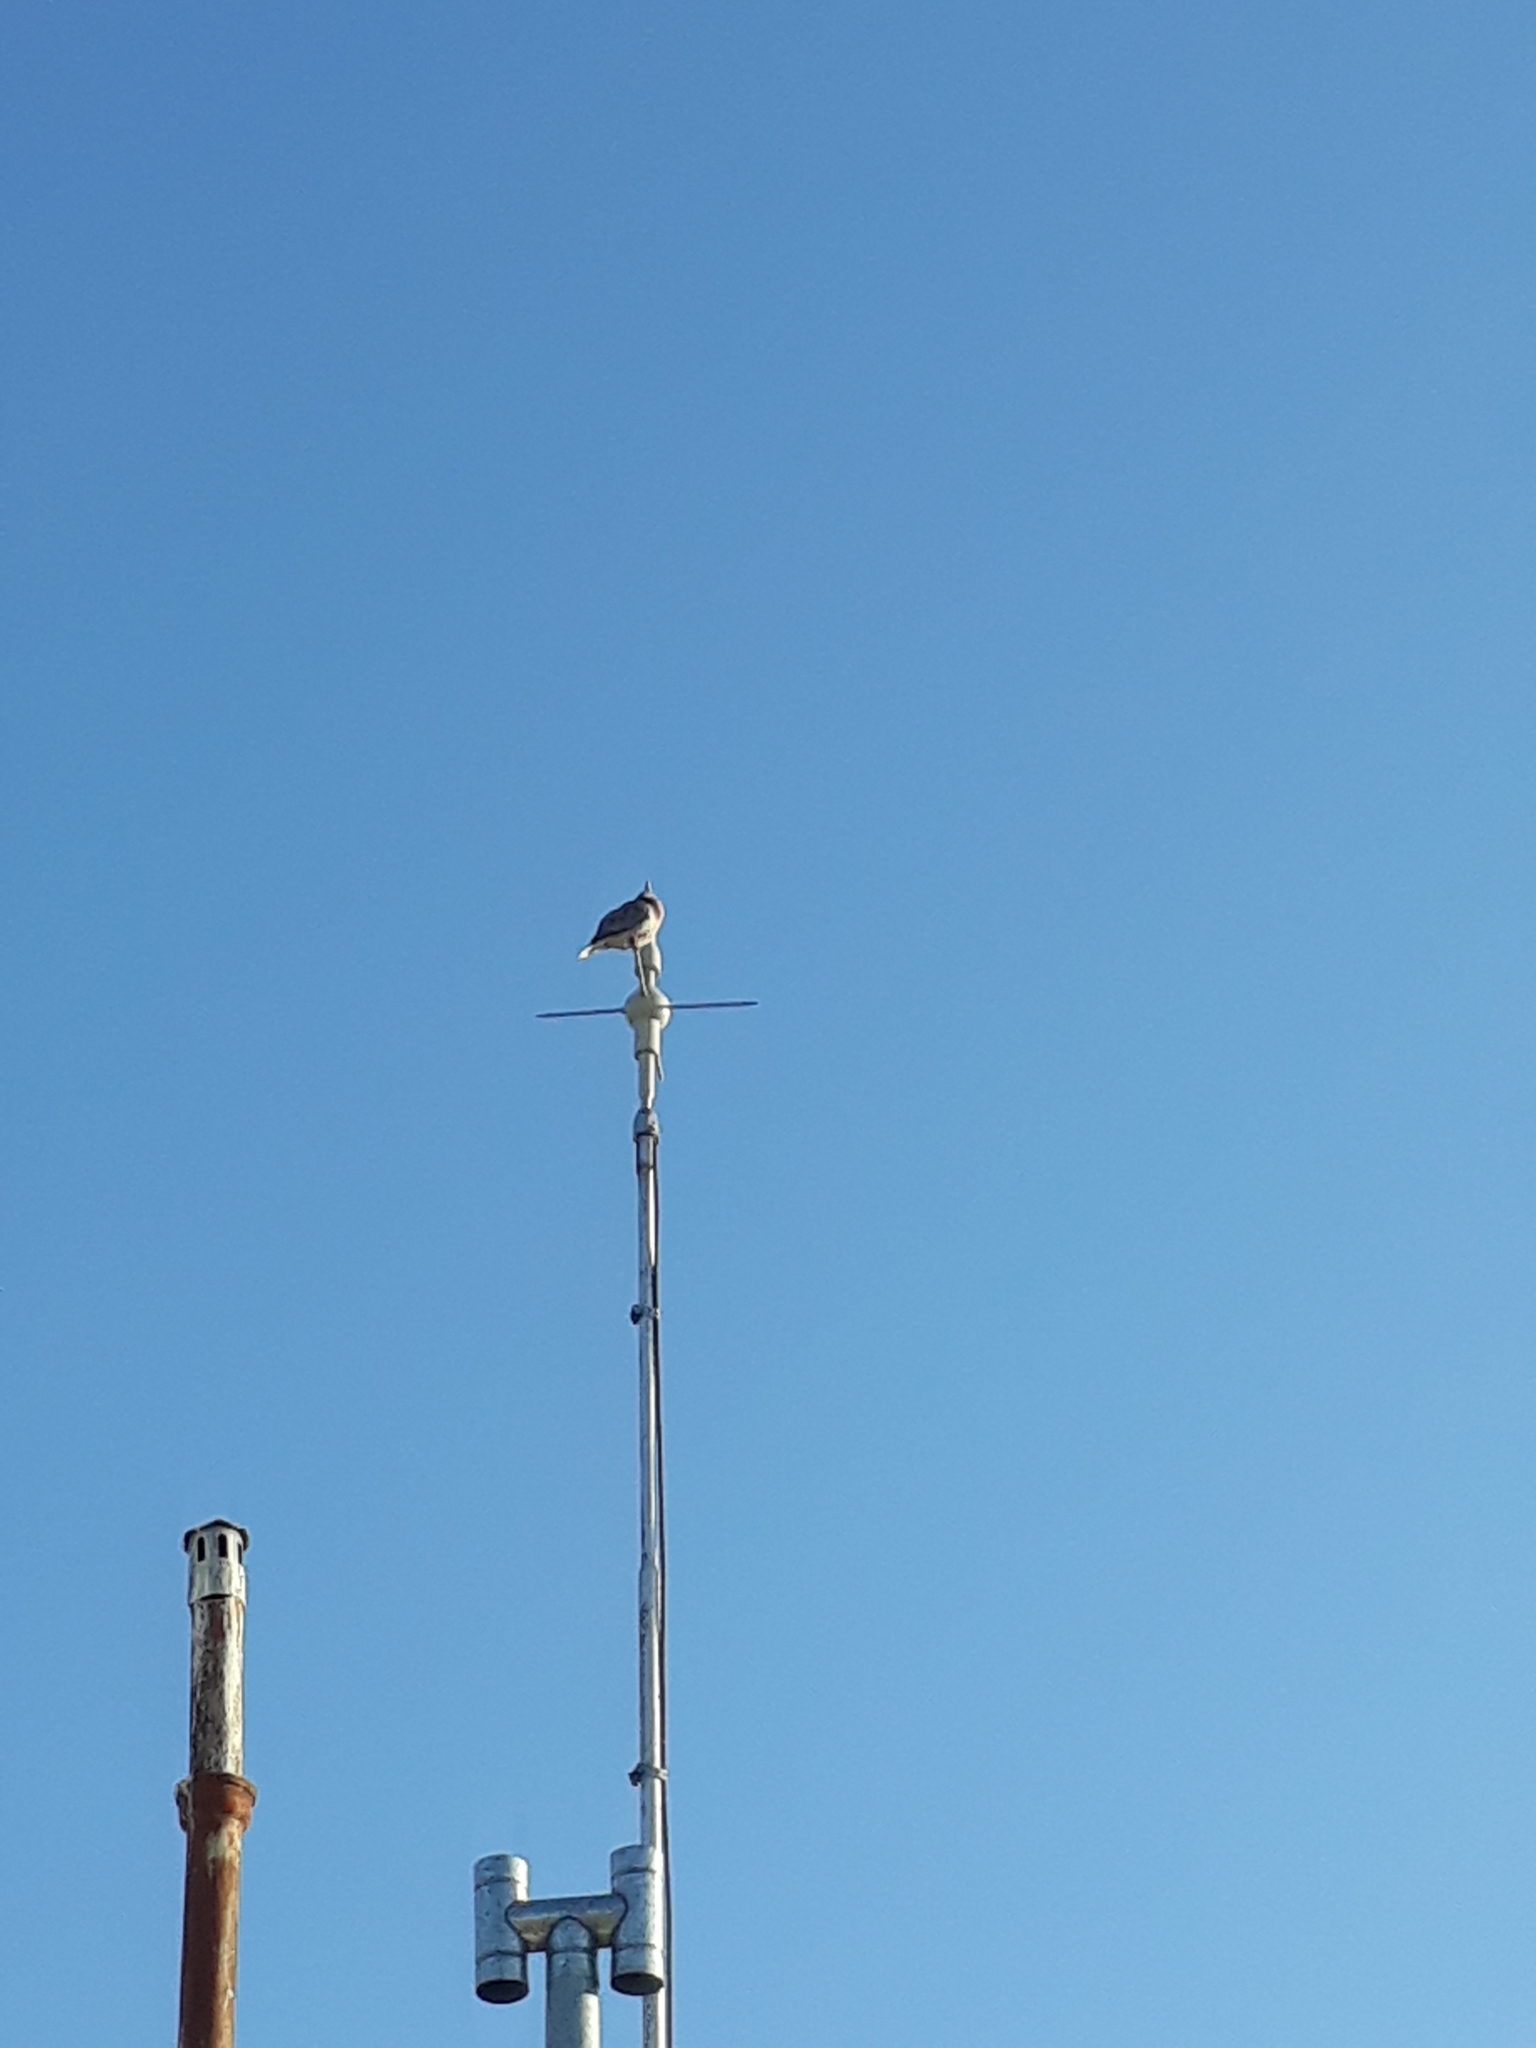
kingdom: Animalia
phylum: Chordata
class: Aves
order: Columbiformes
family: Columbidae
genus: Zenaida
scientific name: Zenaida auriculata
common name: Eared dove
